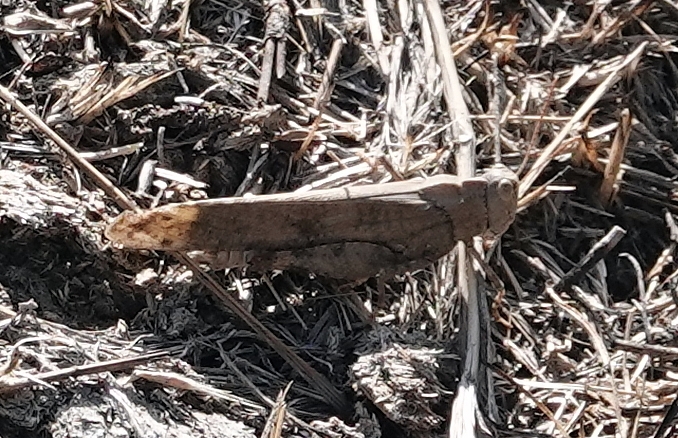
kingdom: Animalia
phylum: Arthropoda
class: Insecta
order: Orthoptera
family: Acrididae
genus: Dissosteira
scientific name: Dissosteira carolina
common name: Carolina grasshopper
